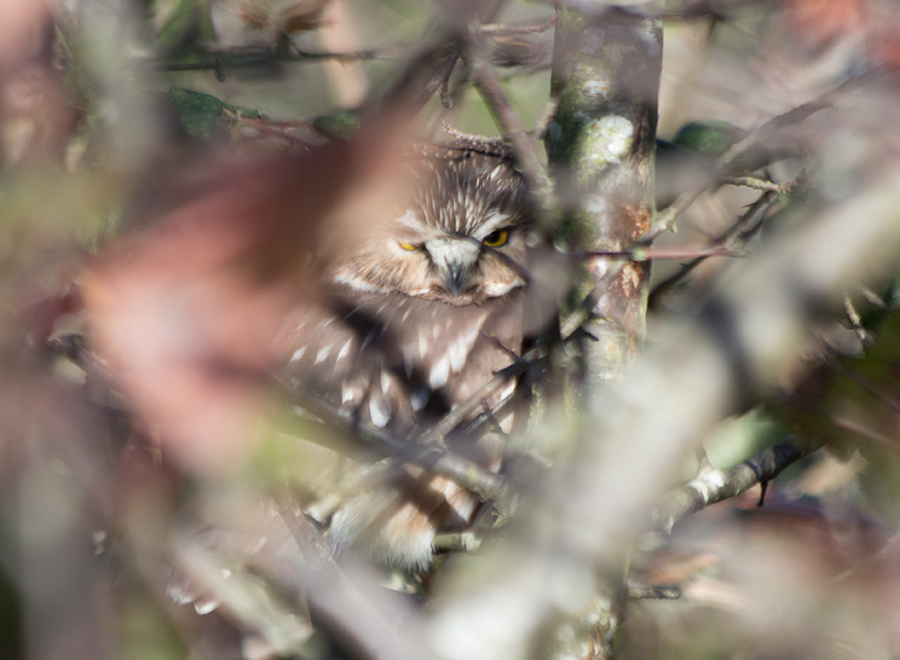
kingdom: Animalia
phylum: Chordata
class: Aves
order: Strigiformes
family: Strigidae
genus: Aegolius
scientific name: Aegolius acadicus
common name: Northern saw-whet owl
